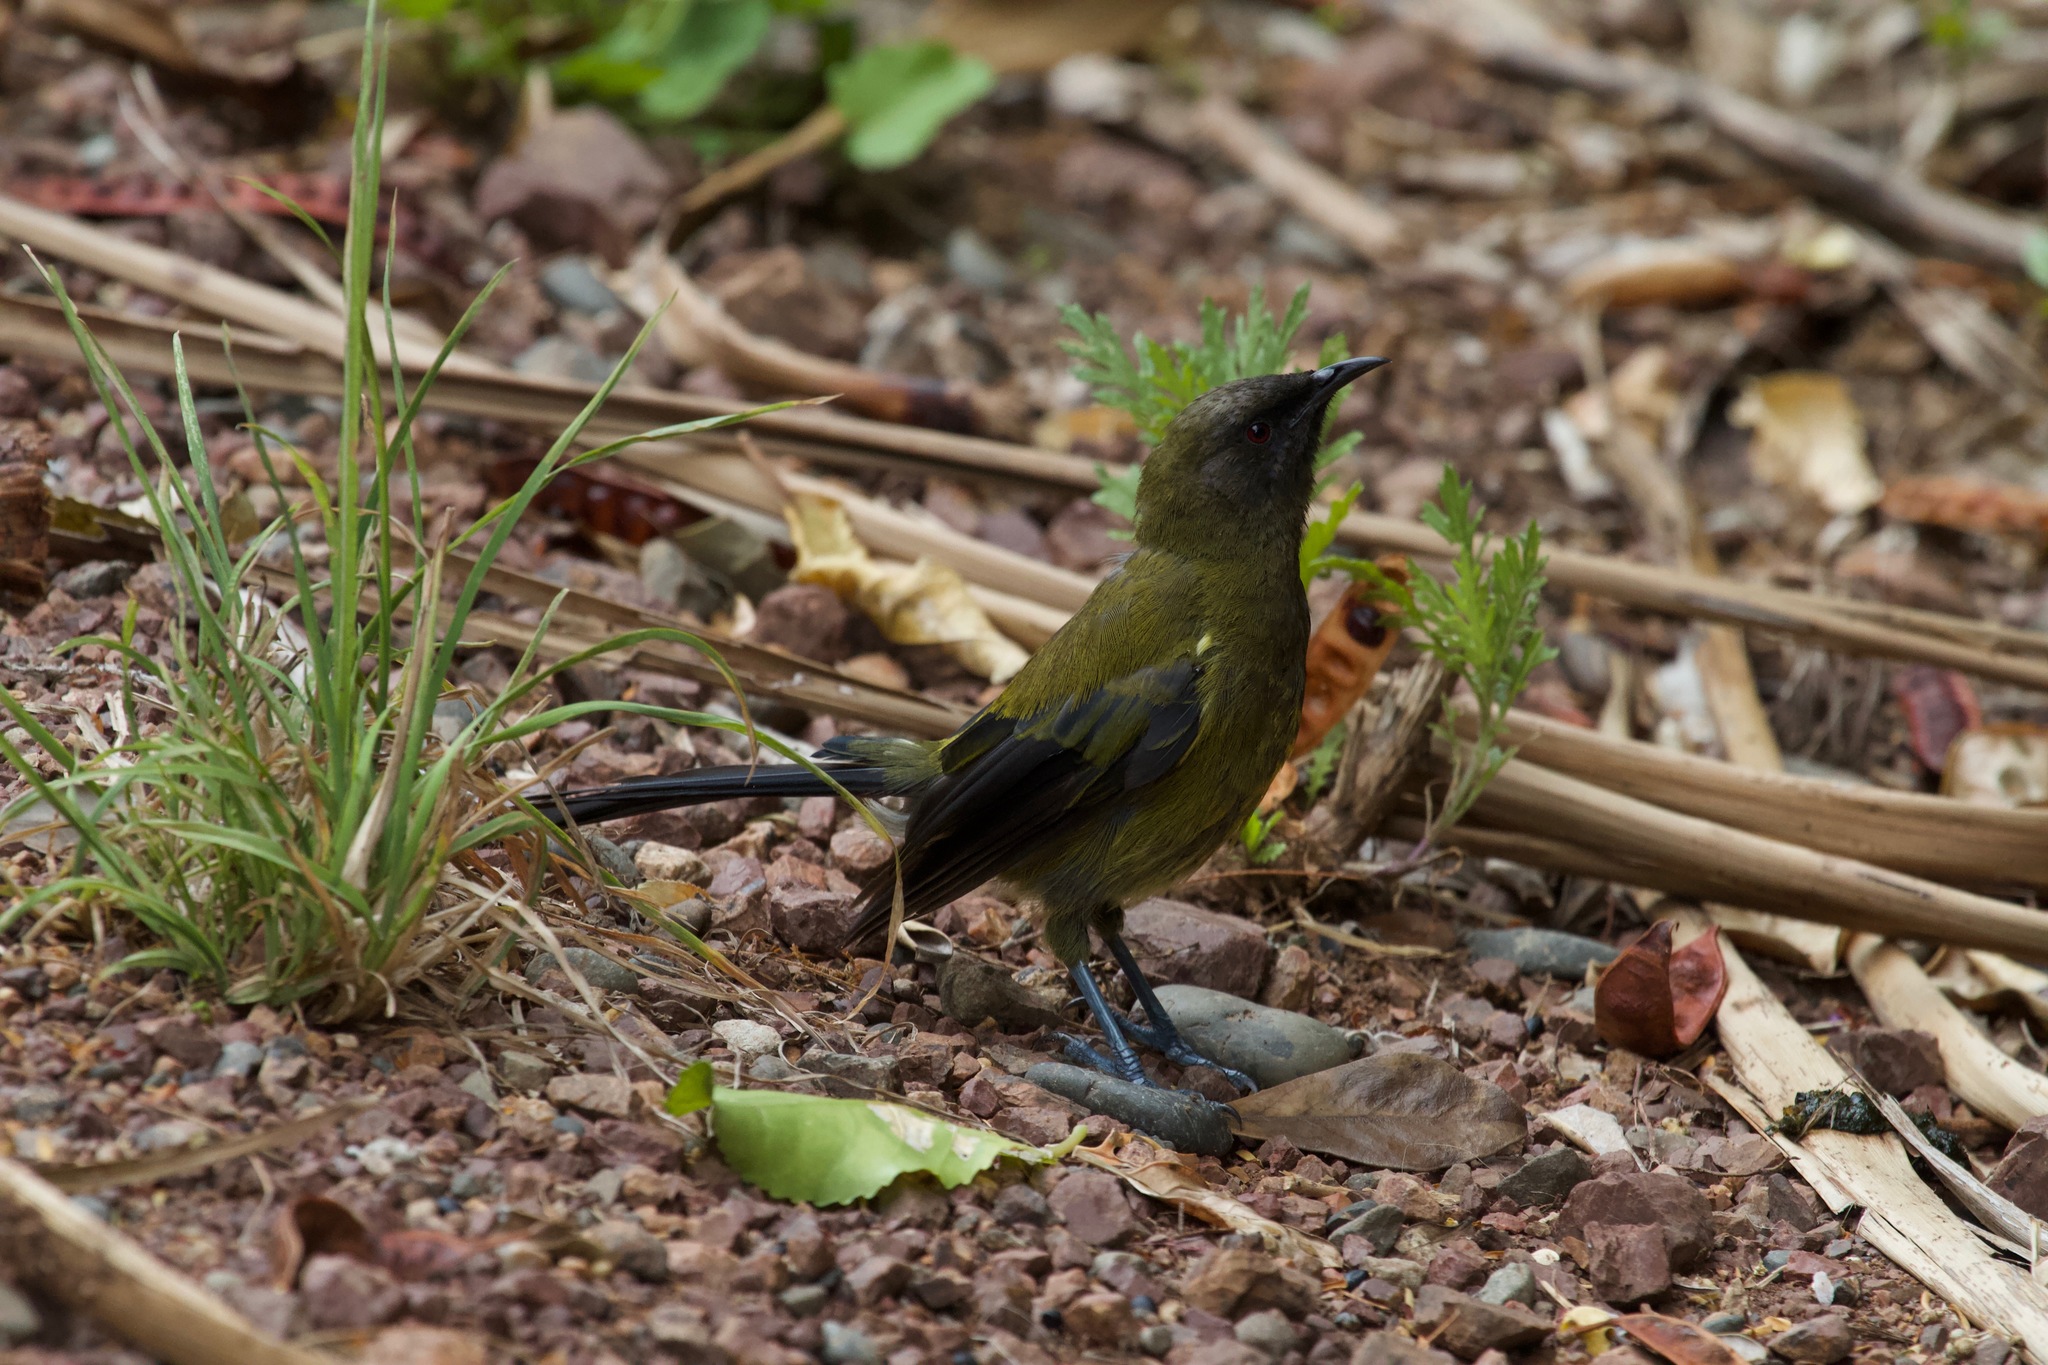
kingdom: Animalia
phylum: Chordata
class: Aves
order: Passeriformes
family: Meliphagidae
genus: Anthornis
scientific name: Anthornis melanura
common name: New zealand bellbird
